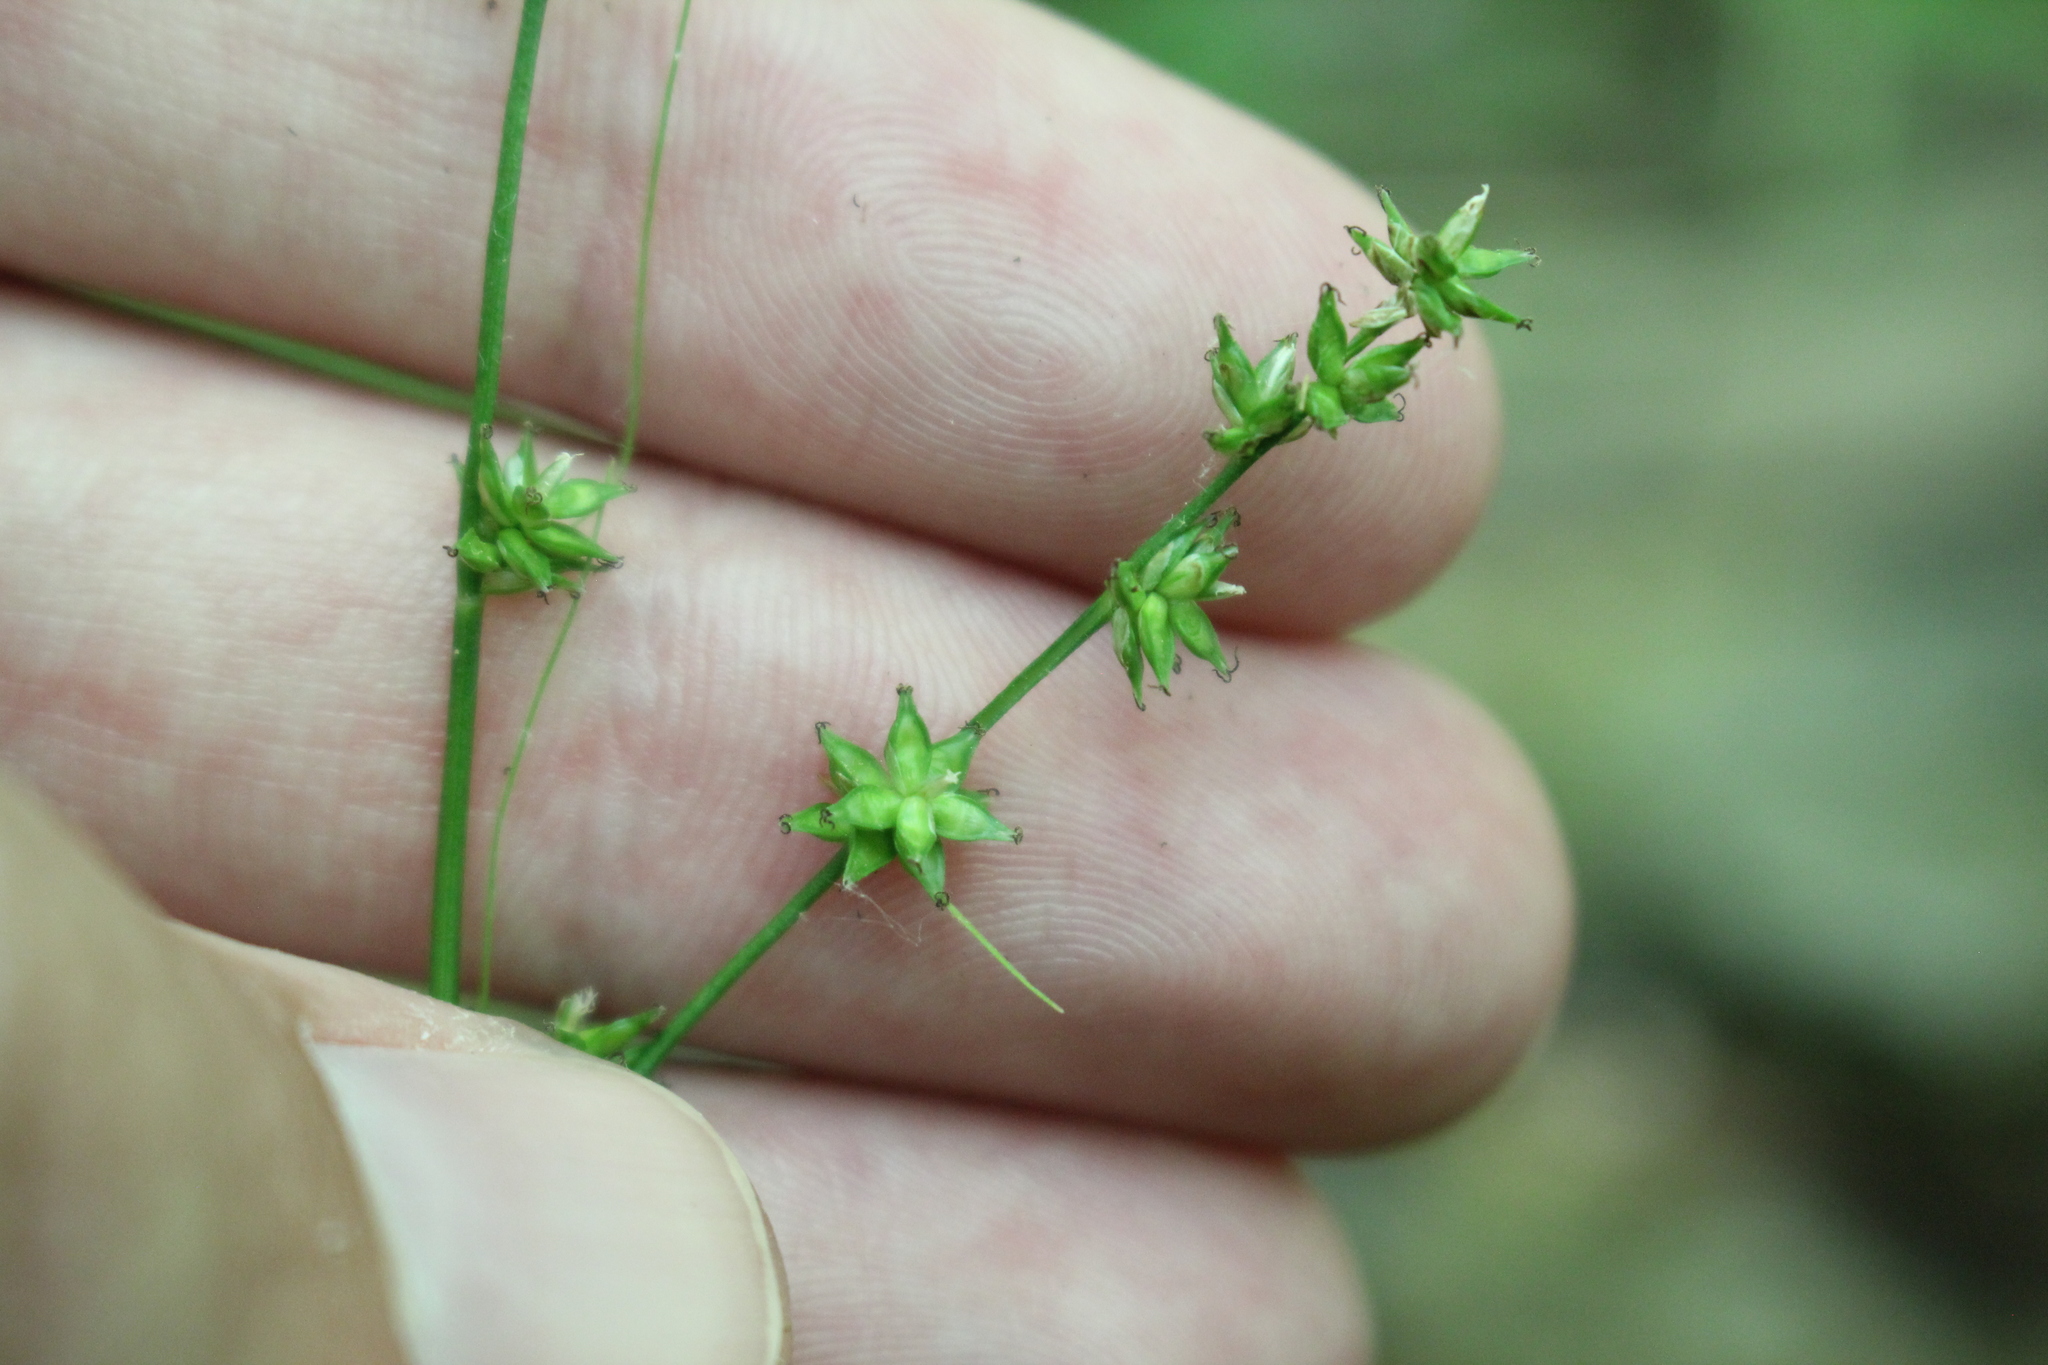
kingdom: Plantae
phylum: Tracheophyta
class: Liliopsida
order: Poales
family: Cyperaceae
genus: Carex
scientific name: Carex rosea
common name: Curly-styled wood sedge
